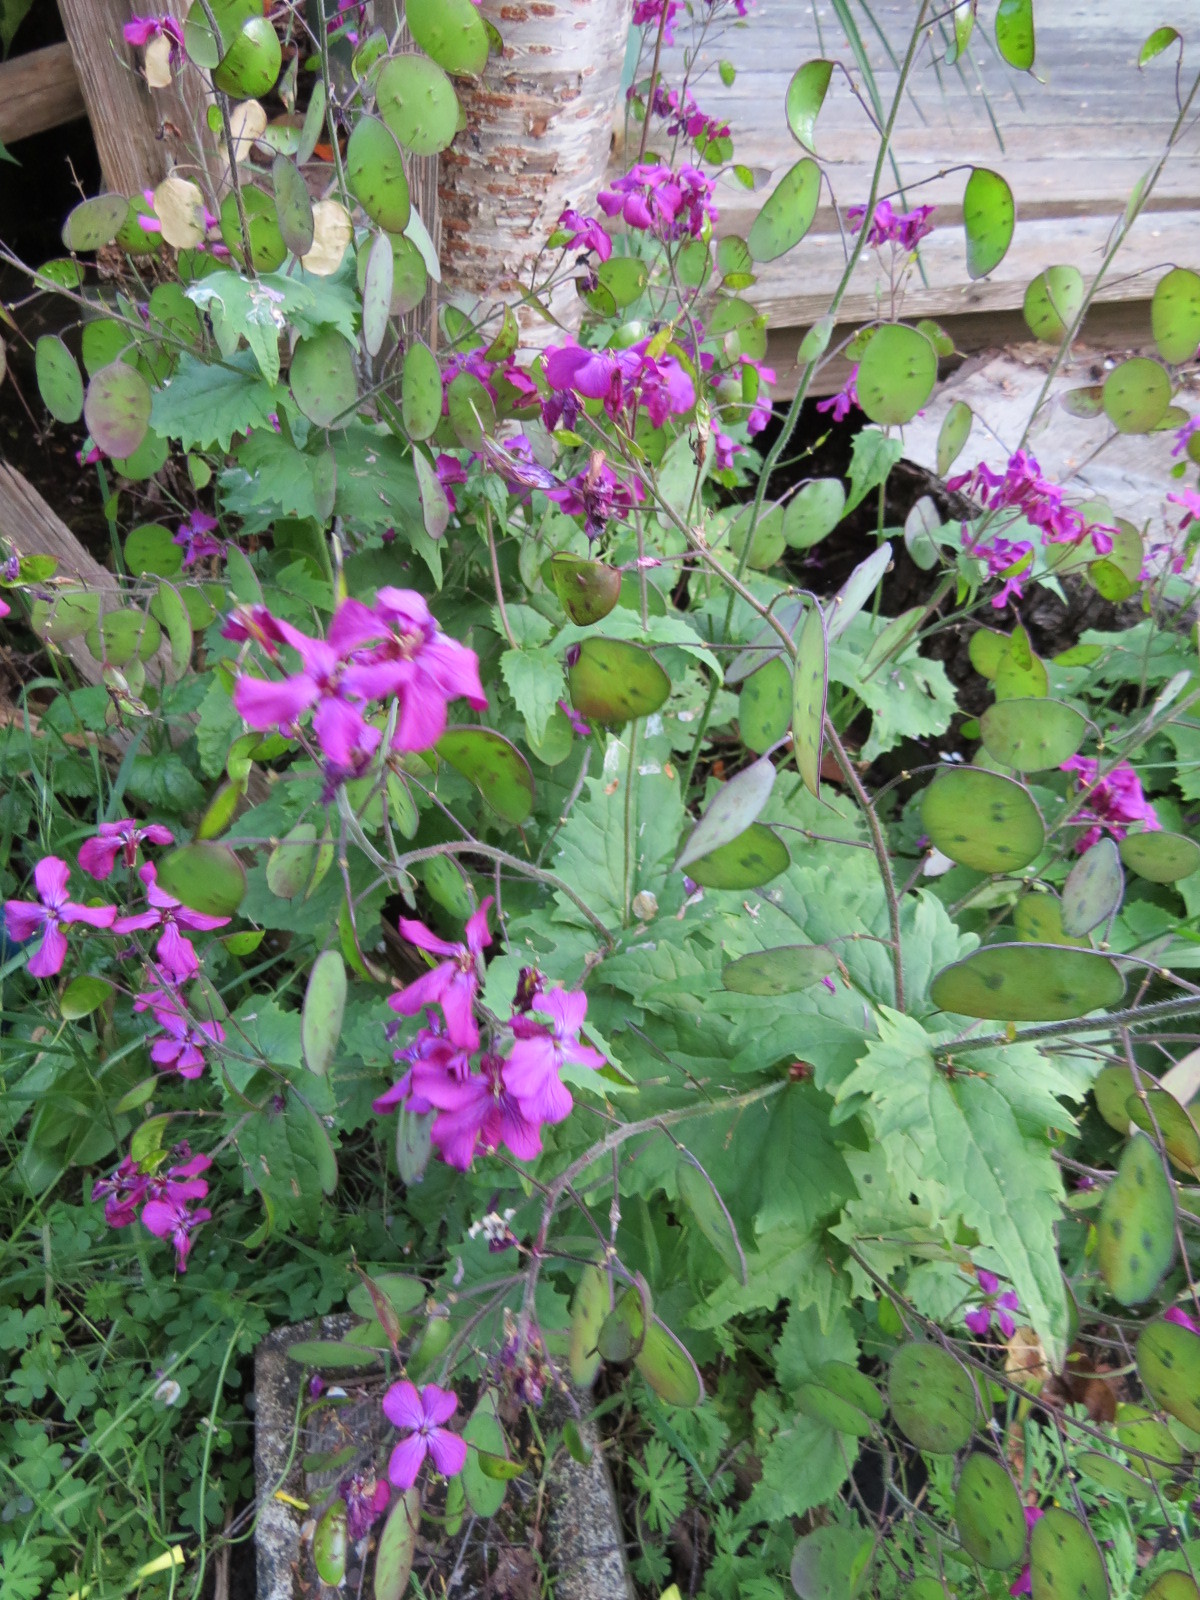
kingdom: Plantae
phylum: Tracheophyta
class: Magnoliopsida
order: Brassicales
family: Brassicaceae
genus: Lunaria
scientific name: Lunaria annua
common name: Honesty
